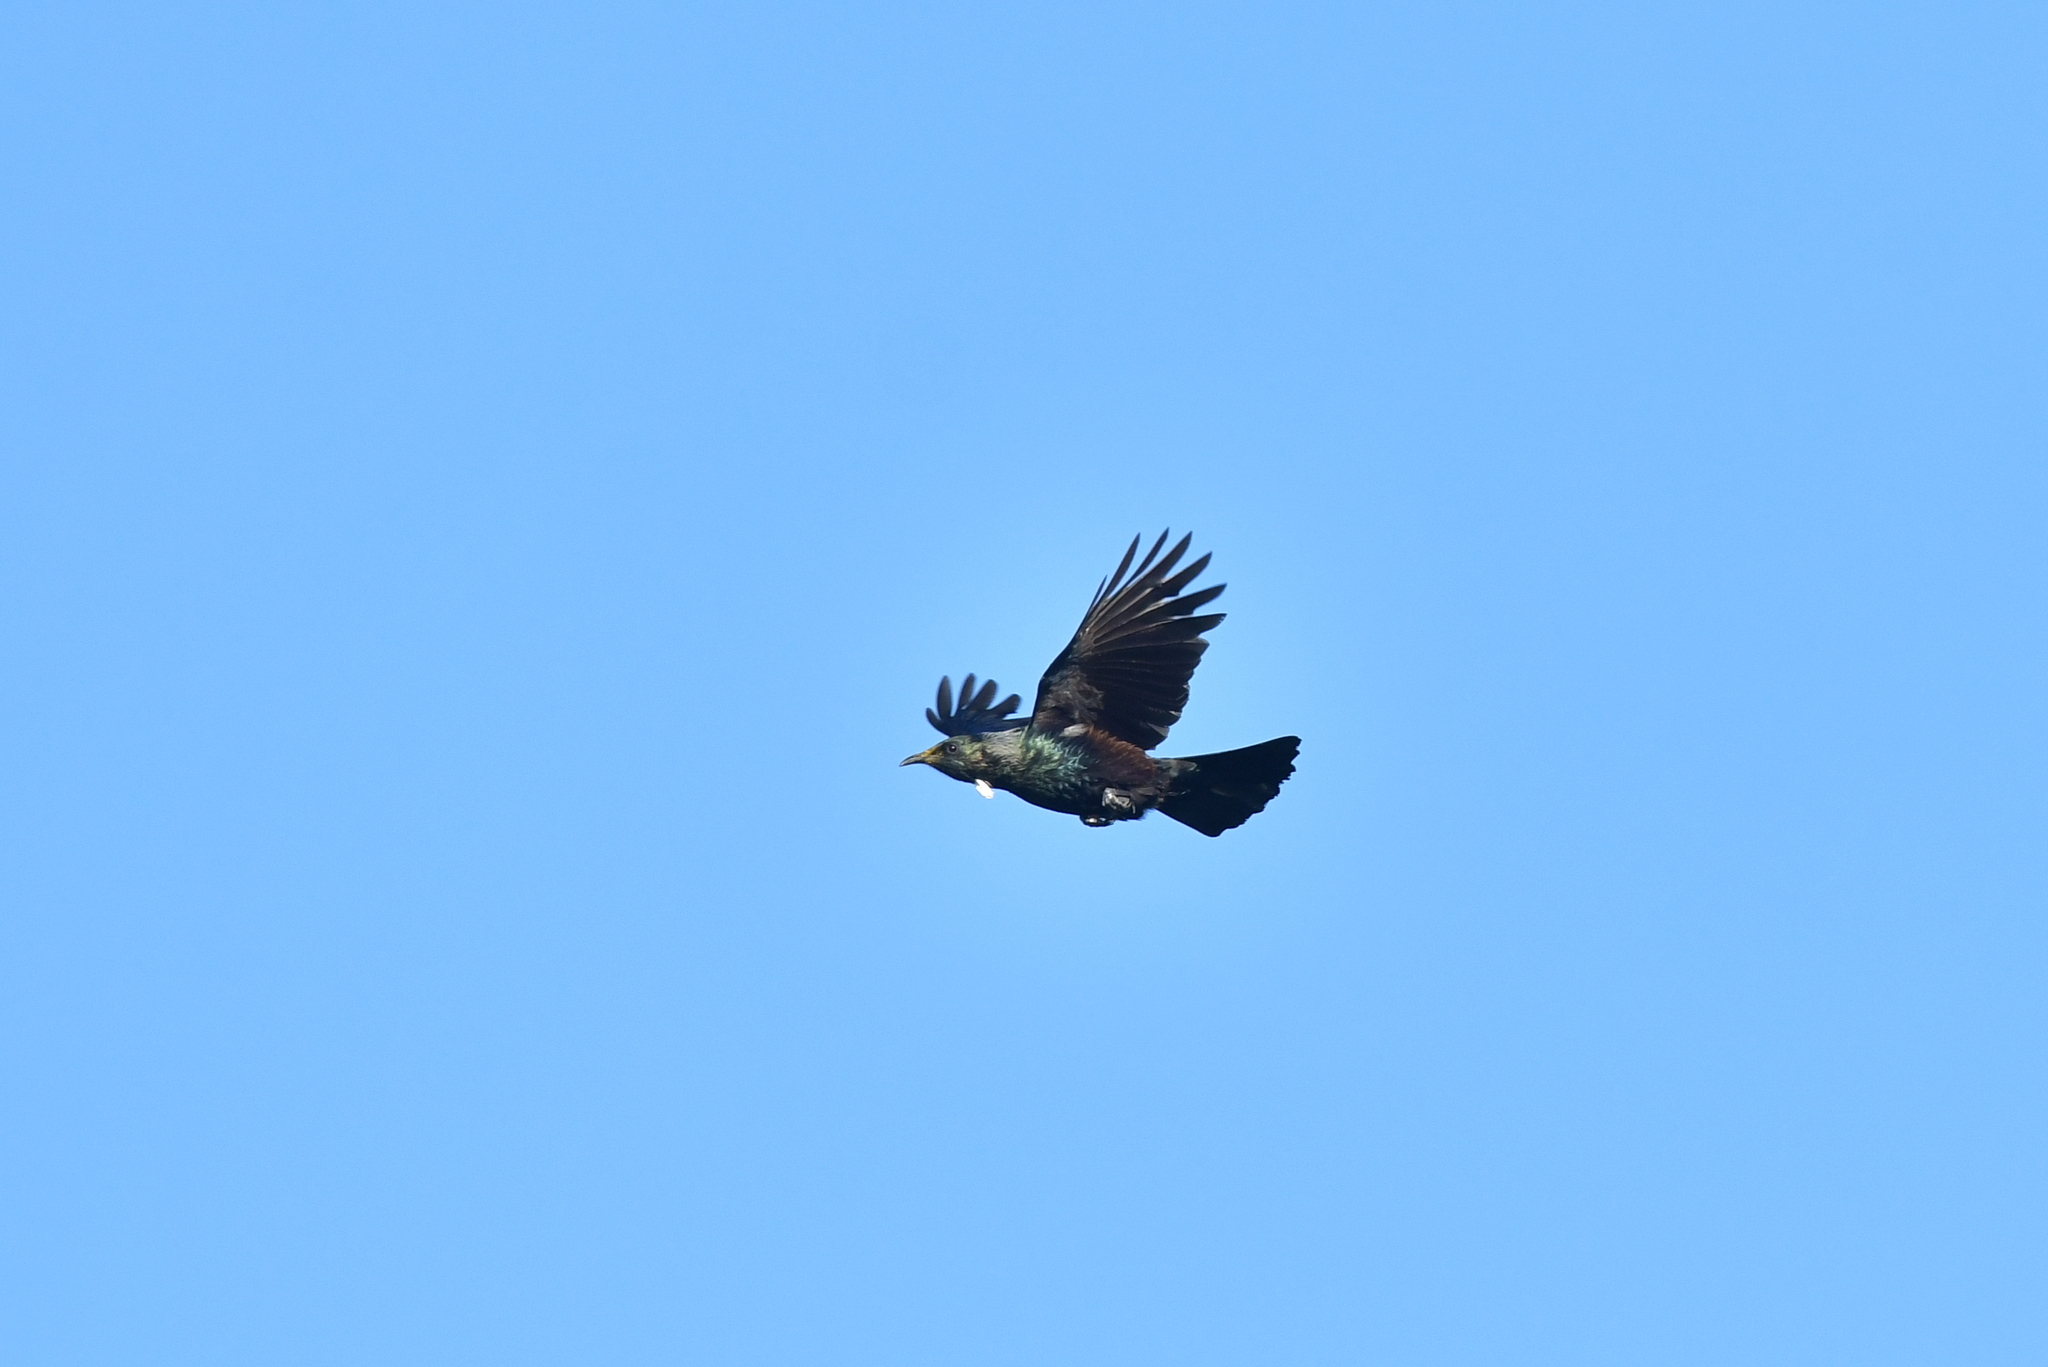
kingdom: Animalia
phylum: Chordata
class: Aves
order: Passeriformes
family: Meliphagidae
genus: Prosthemadera
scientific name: Prosthemadera novaeseelandiae
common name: Tui
